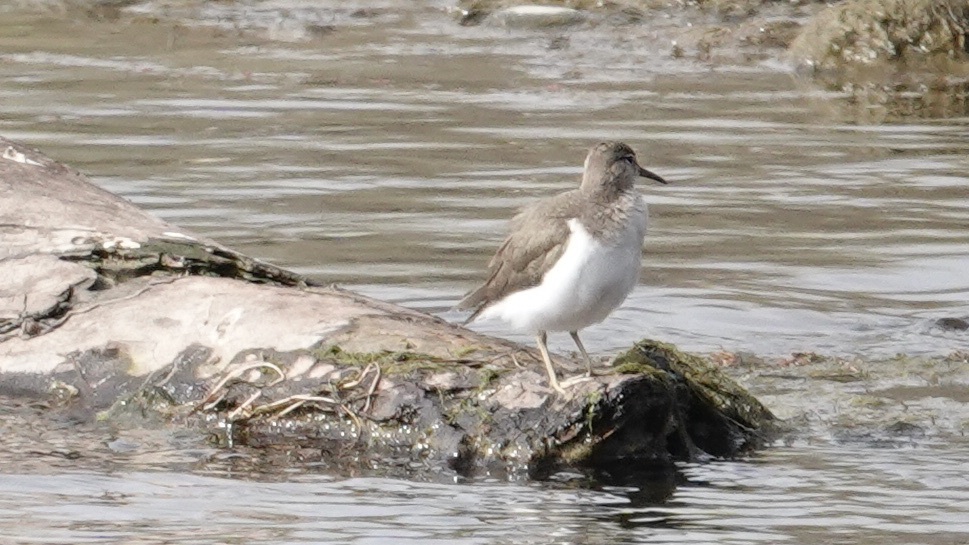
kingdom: Animalia
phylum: Chordata
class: Aves
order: Charadriiformes
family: Scolopacidae
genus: Actitis
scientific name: Actitis macularius
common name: Spotted sandpiper
